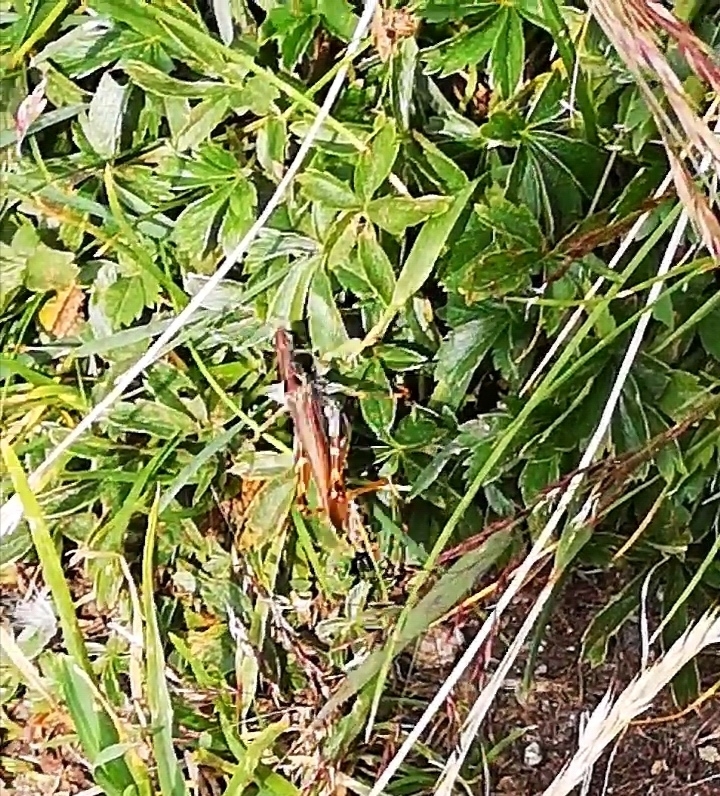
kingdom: Animalia
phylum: Arthropoda
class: Insecta
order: Orthoptera
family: Acrididae
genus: Gomphocerus
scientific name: Gomphocerus sibiricus
